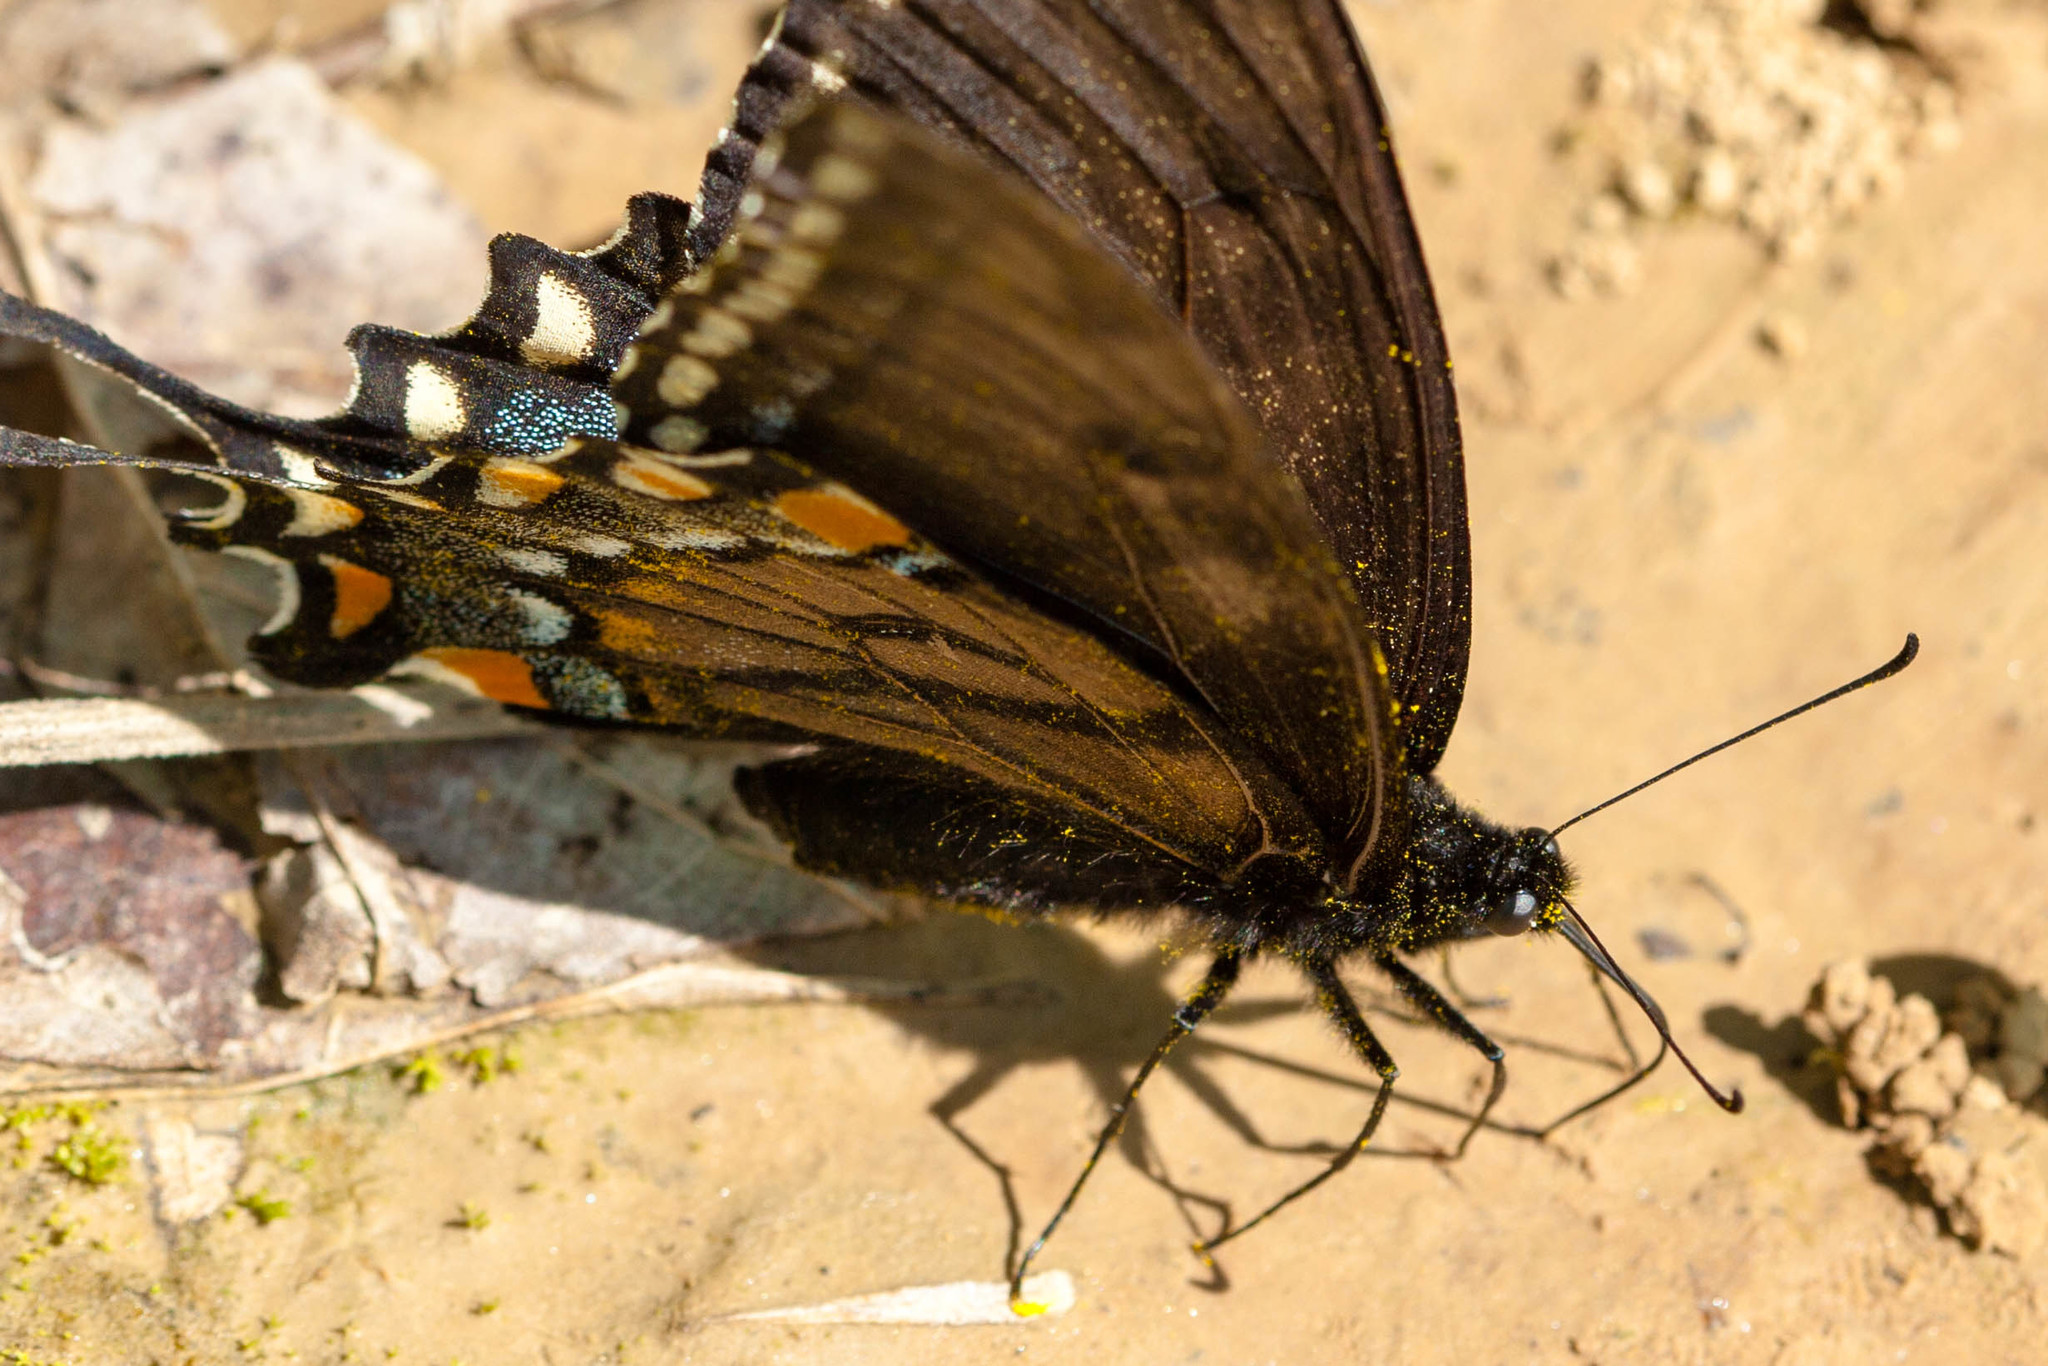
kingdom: Animalia
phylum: Arthropoda
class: Insecta
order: Lepidoptera
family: Papilionidae
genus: Papilio
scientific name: Papilio glaucus
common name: Tiger swallowtail
